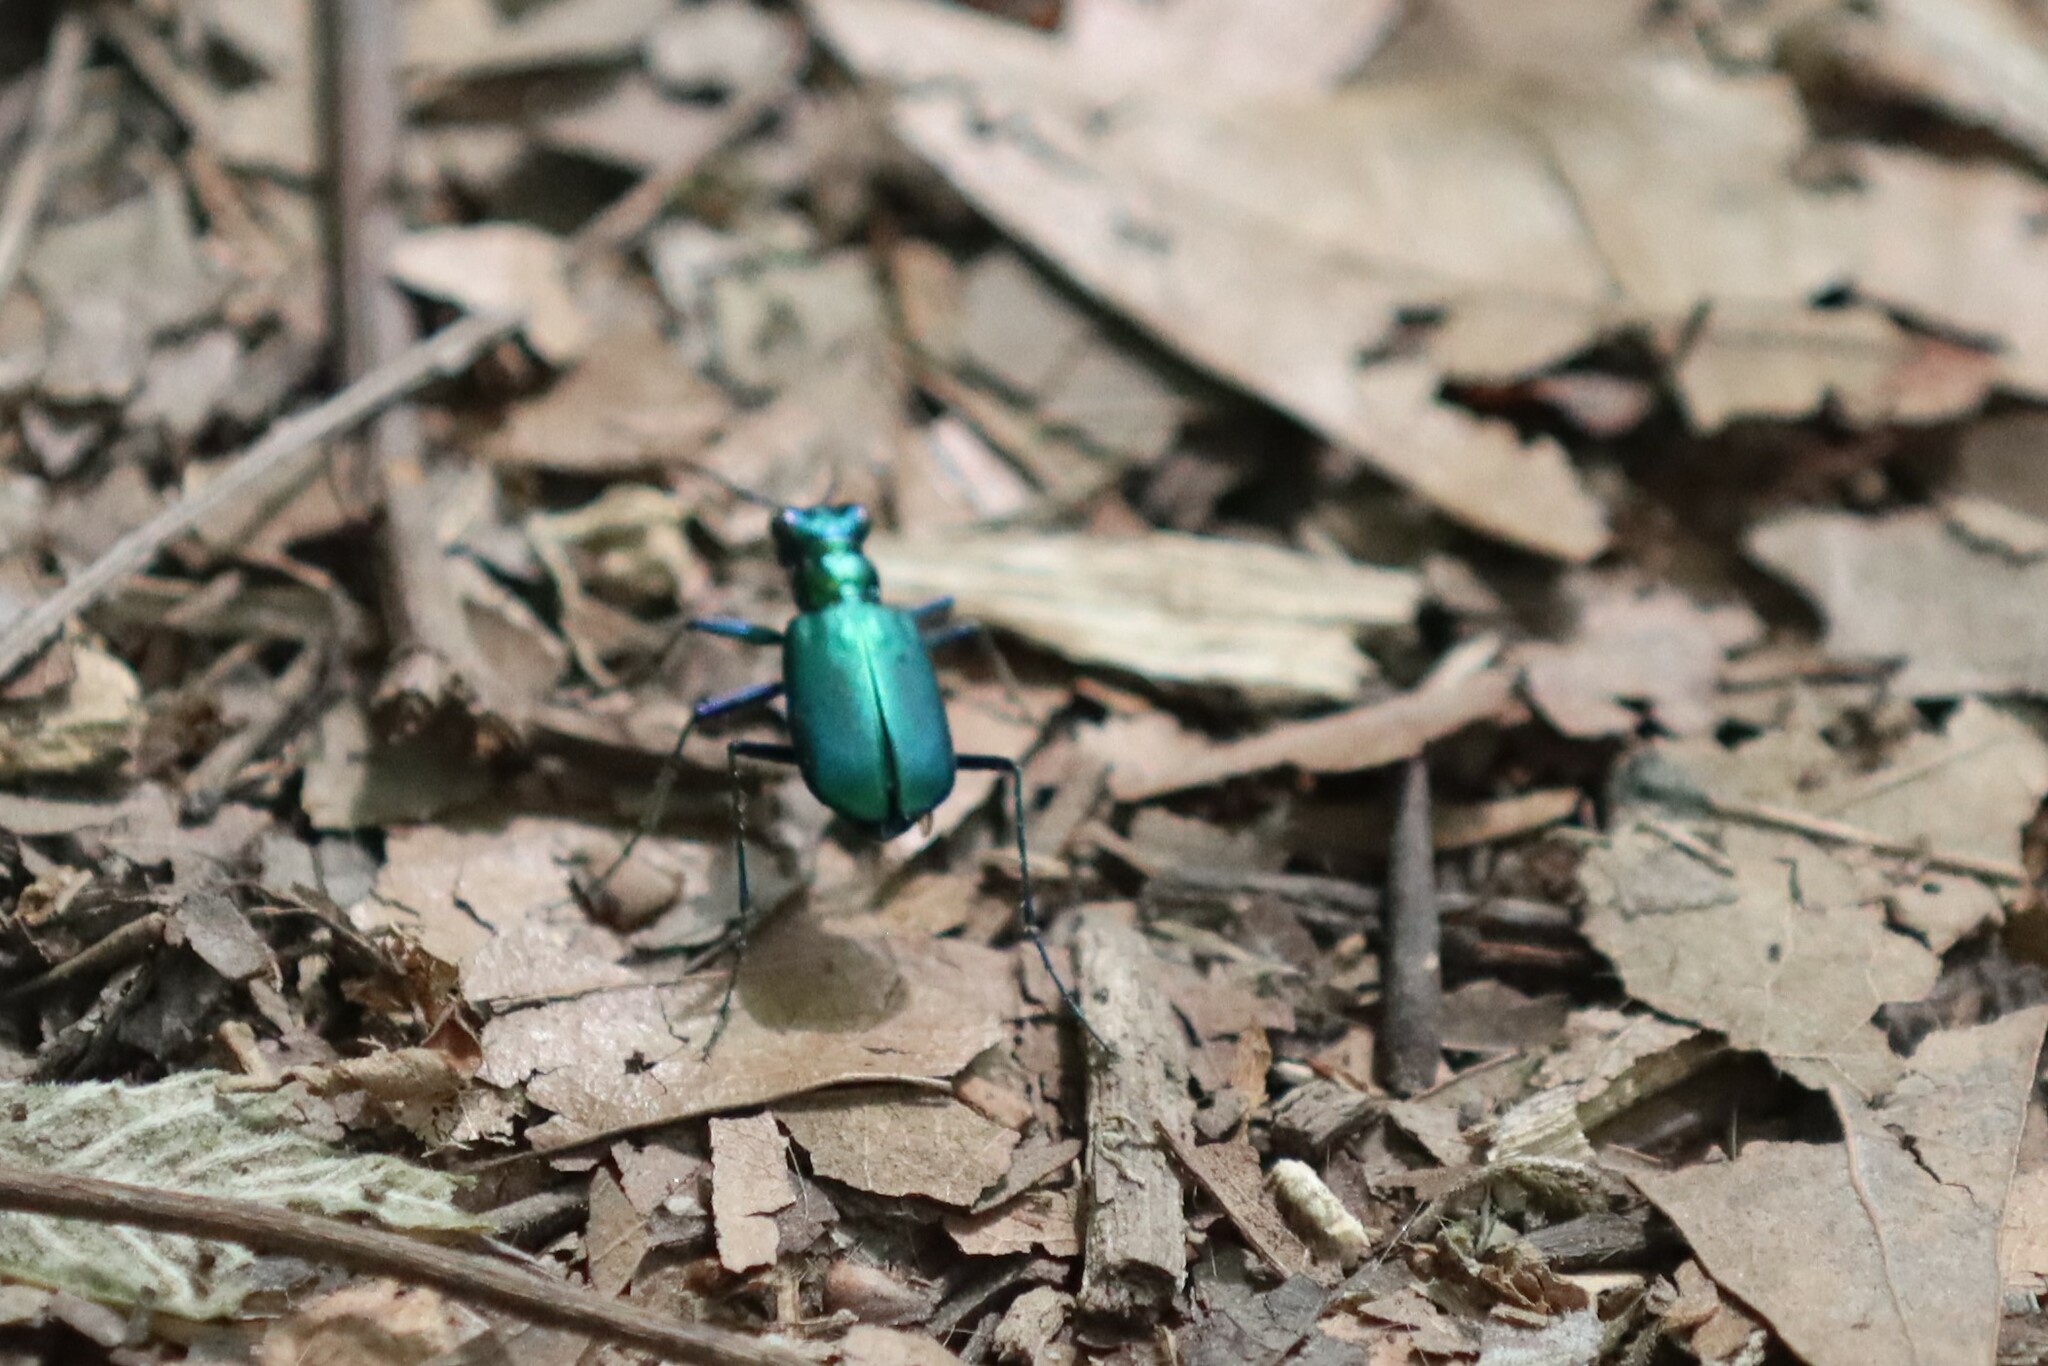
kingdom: Animalia
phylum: Arthropoda
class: Insecta
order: Coleoptera
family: Carabidae
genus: Cicindela
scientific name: Cicindela sexguttata
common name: Six-spotted tiger beetle
